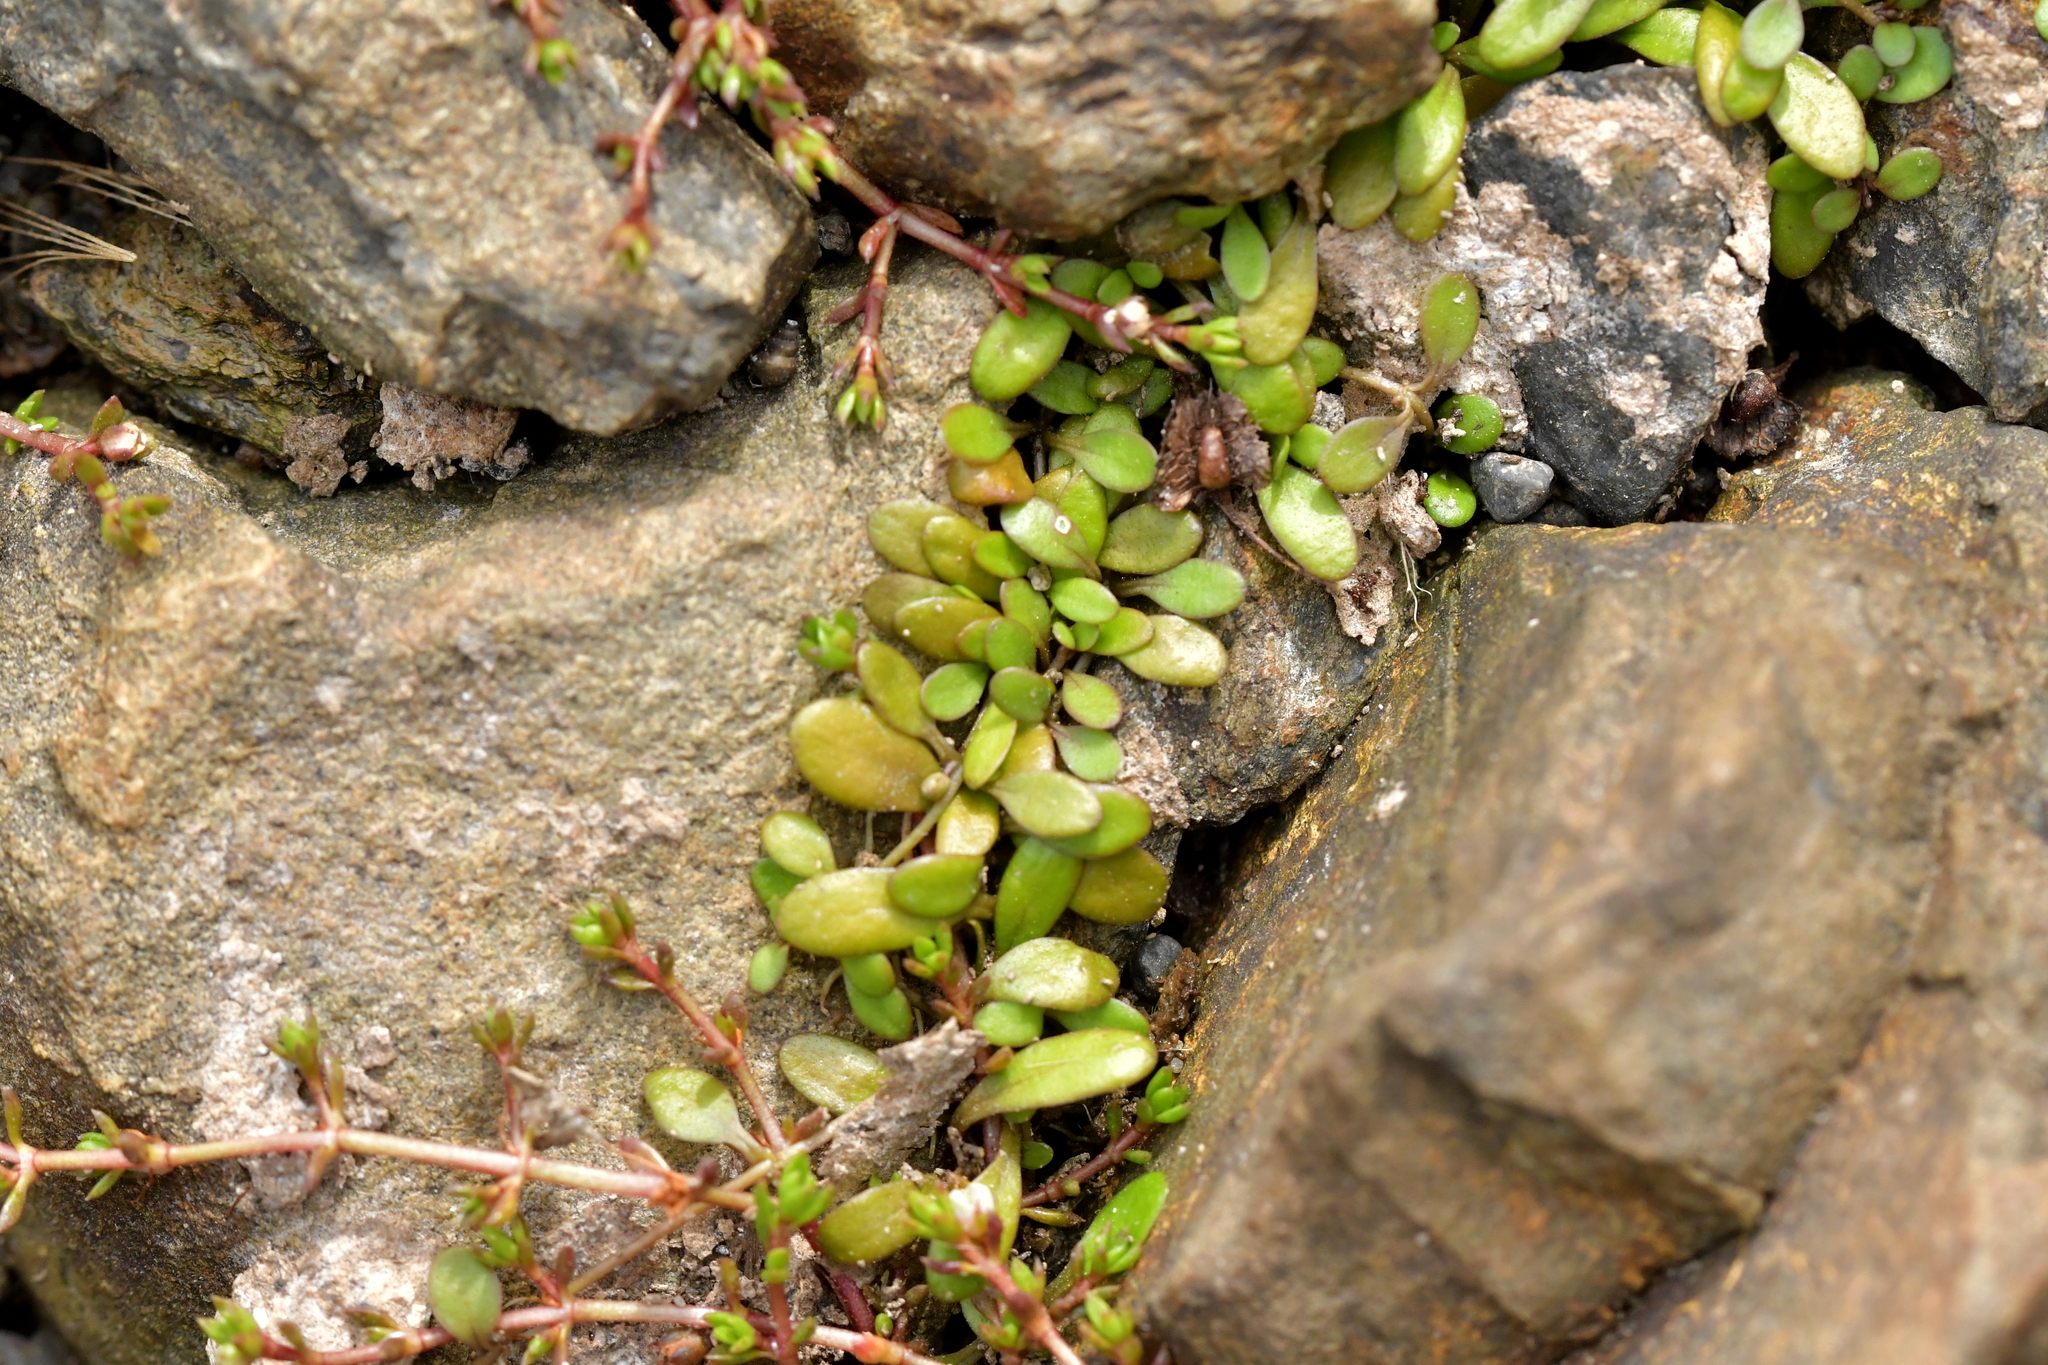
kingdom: Plantae
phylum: Tracheophyta
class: Magnoliopsida
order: Asterales
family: Goodeniaceae
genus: Goodenia
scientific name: Goodenia radicans
